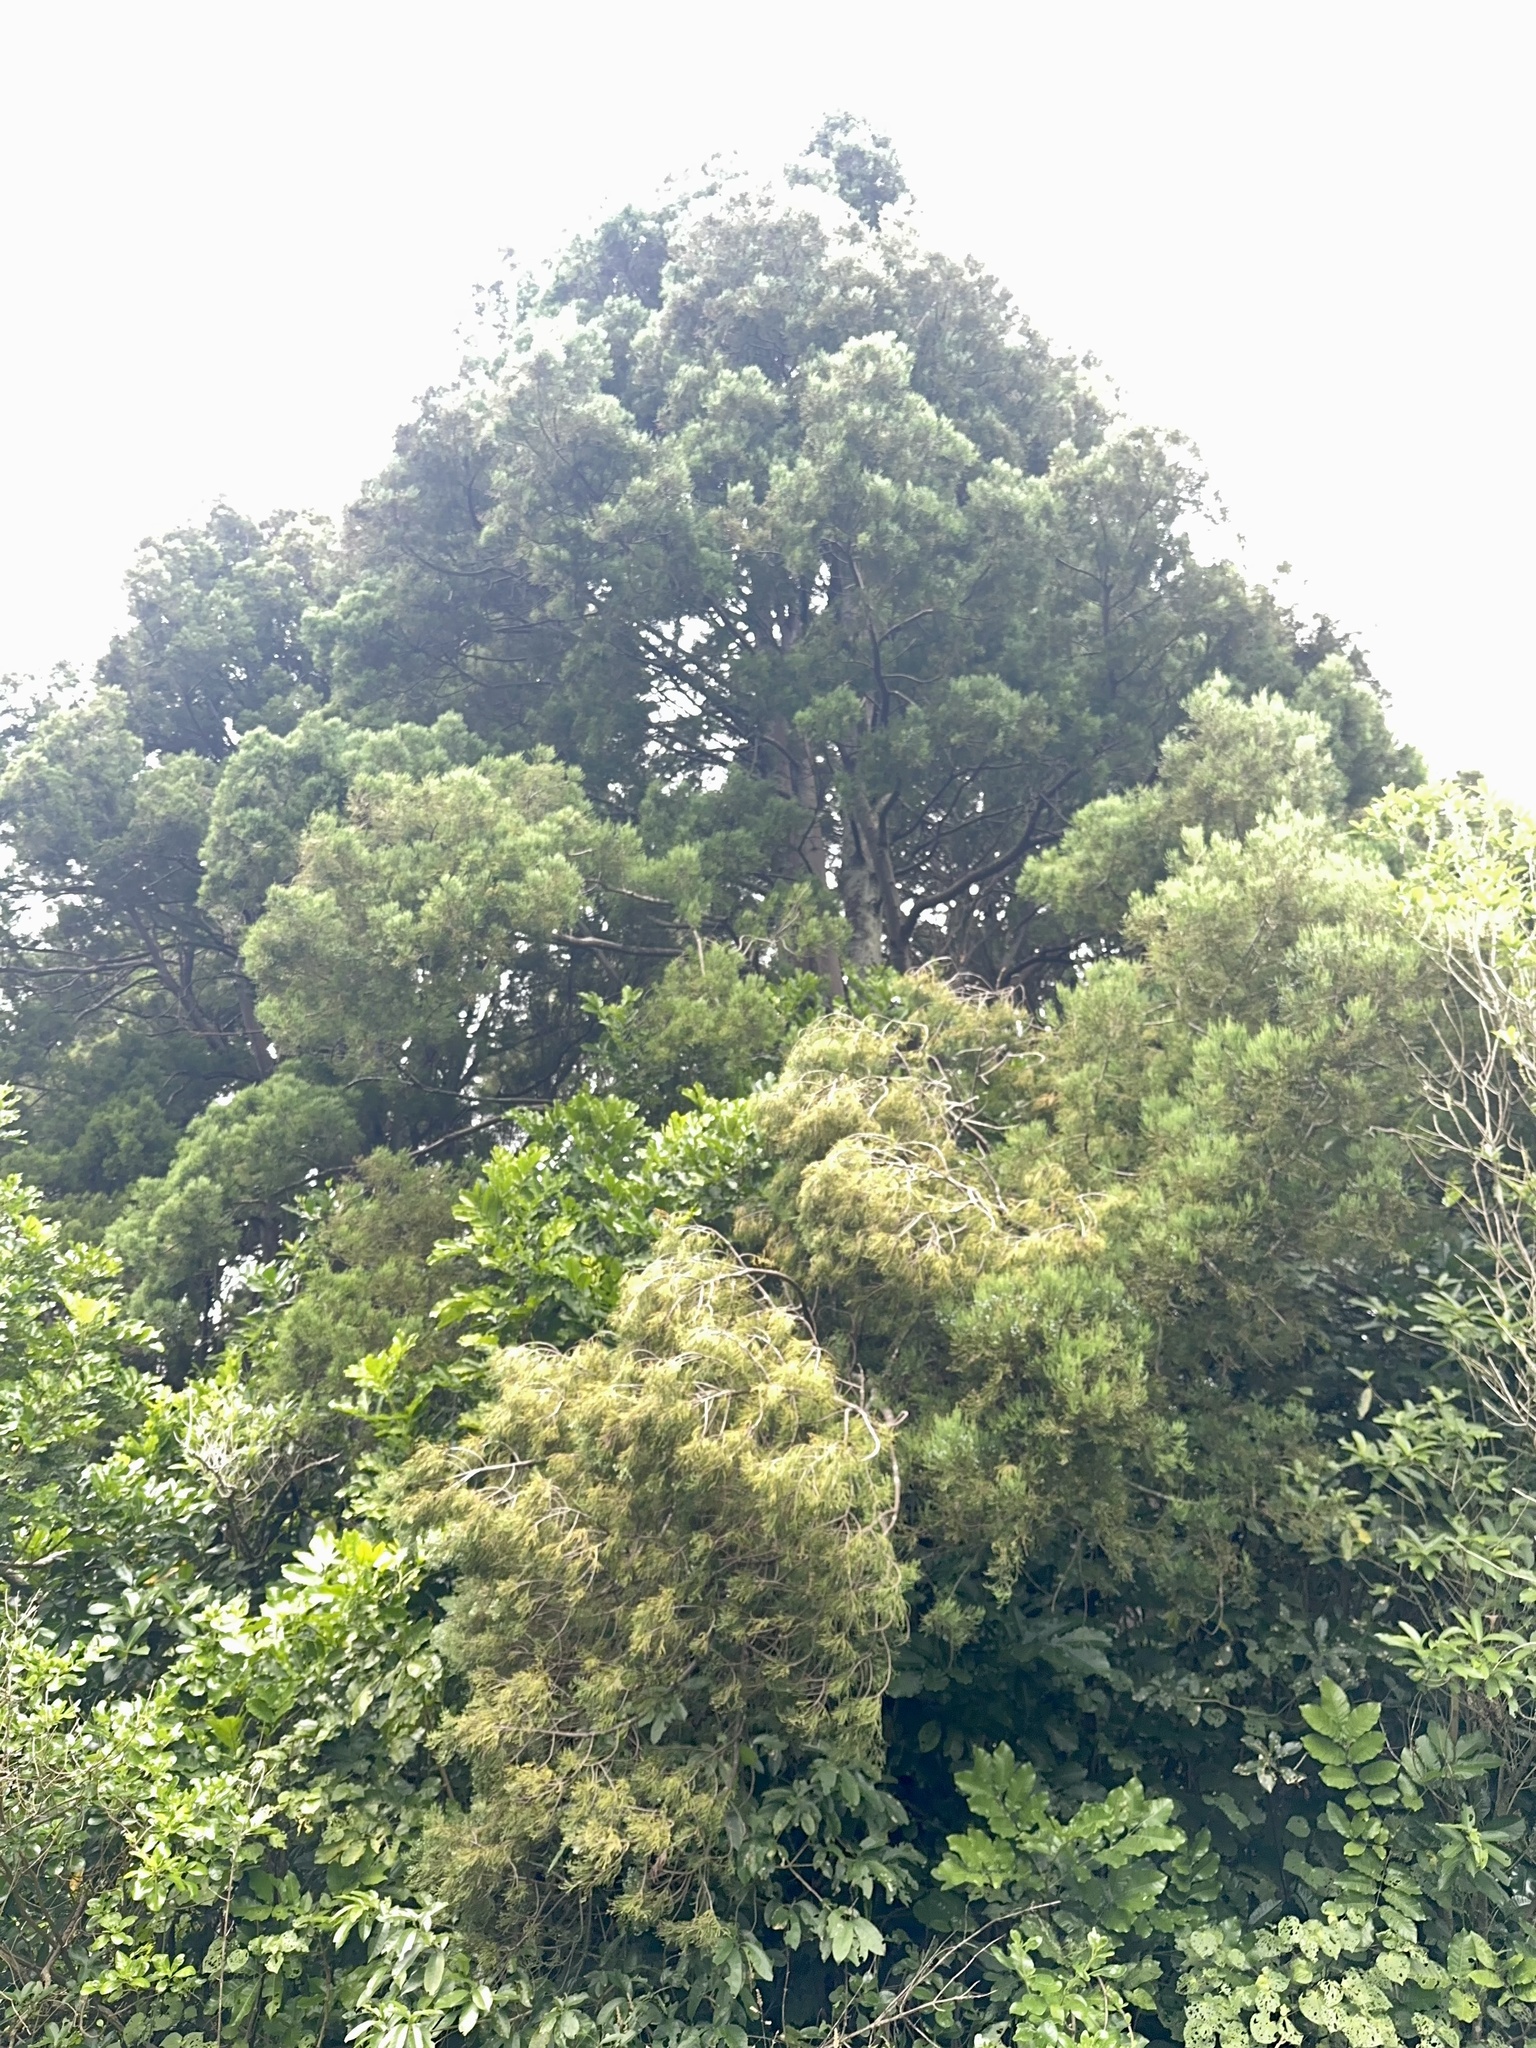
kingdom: Plantae
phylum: Tracheophyta
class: Pinopsida
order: Pinales
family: Podocarpaceae
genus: Dacrycarpus
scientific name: Dacrycarpus dacrydioides
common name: White pine
